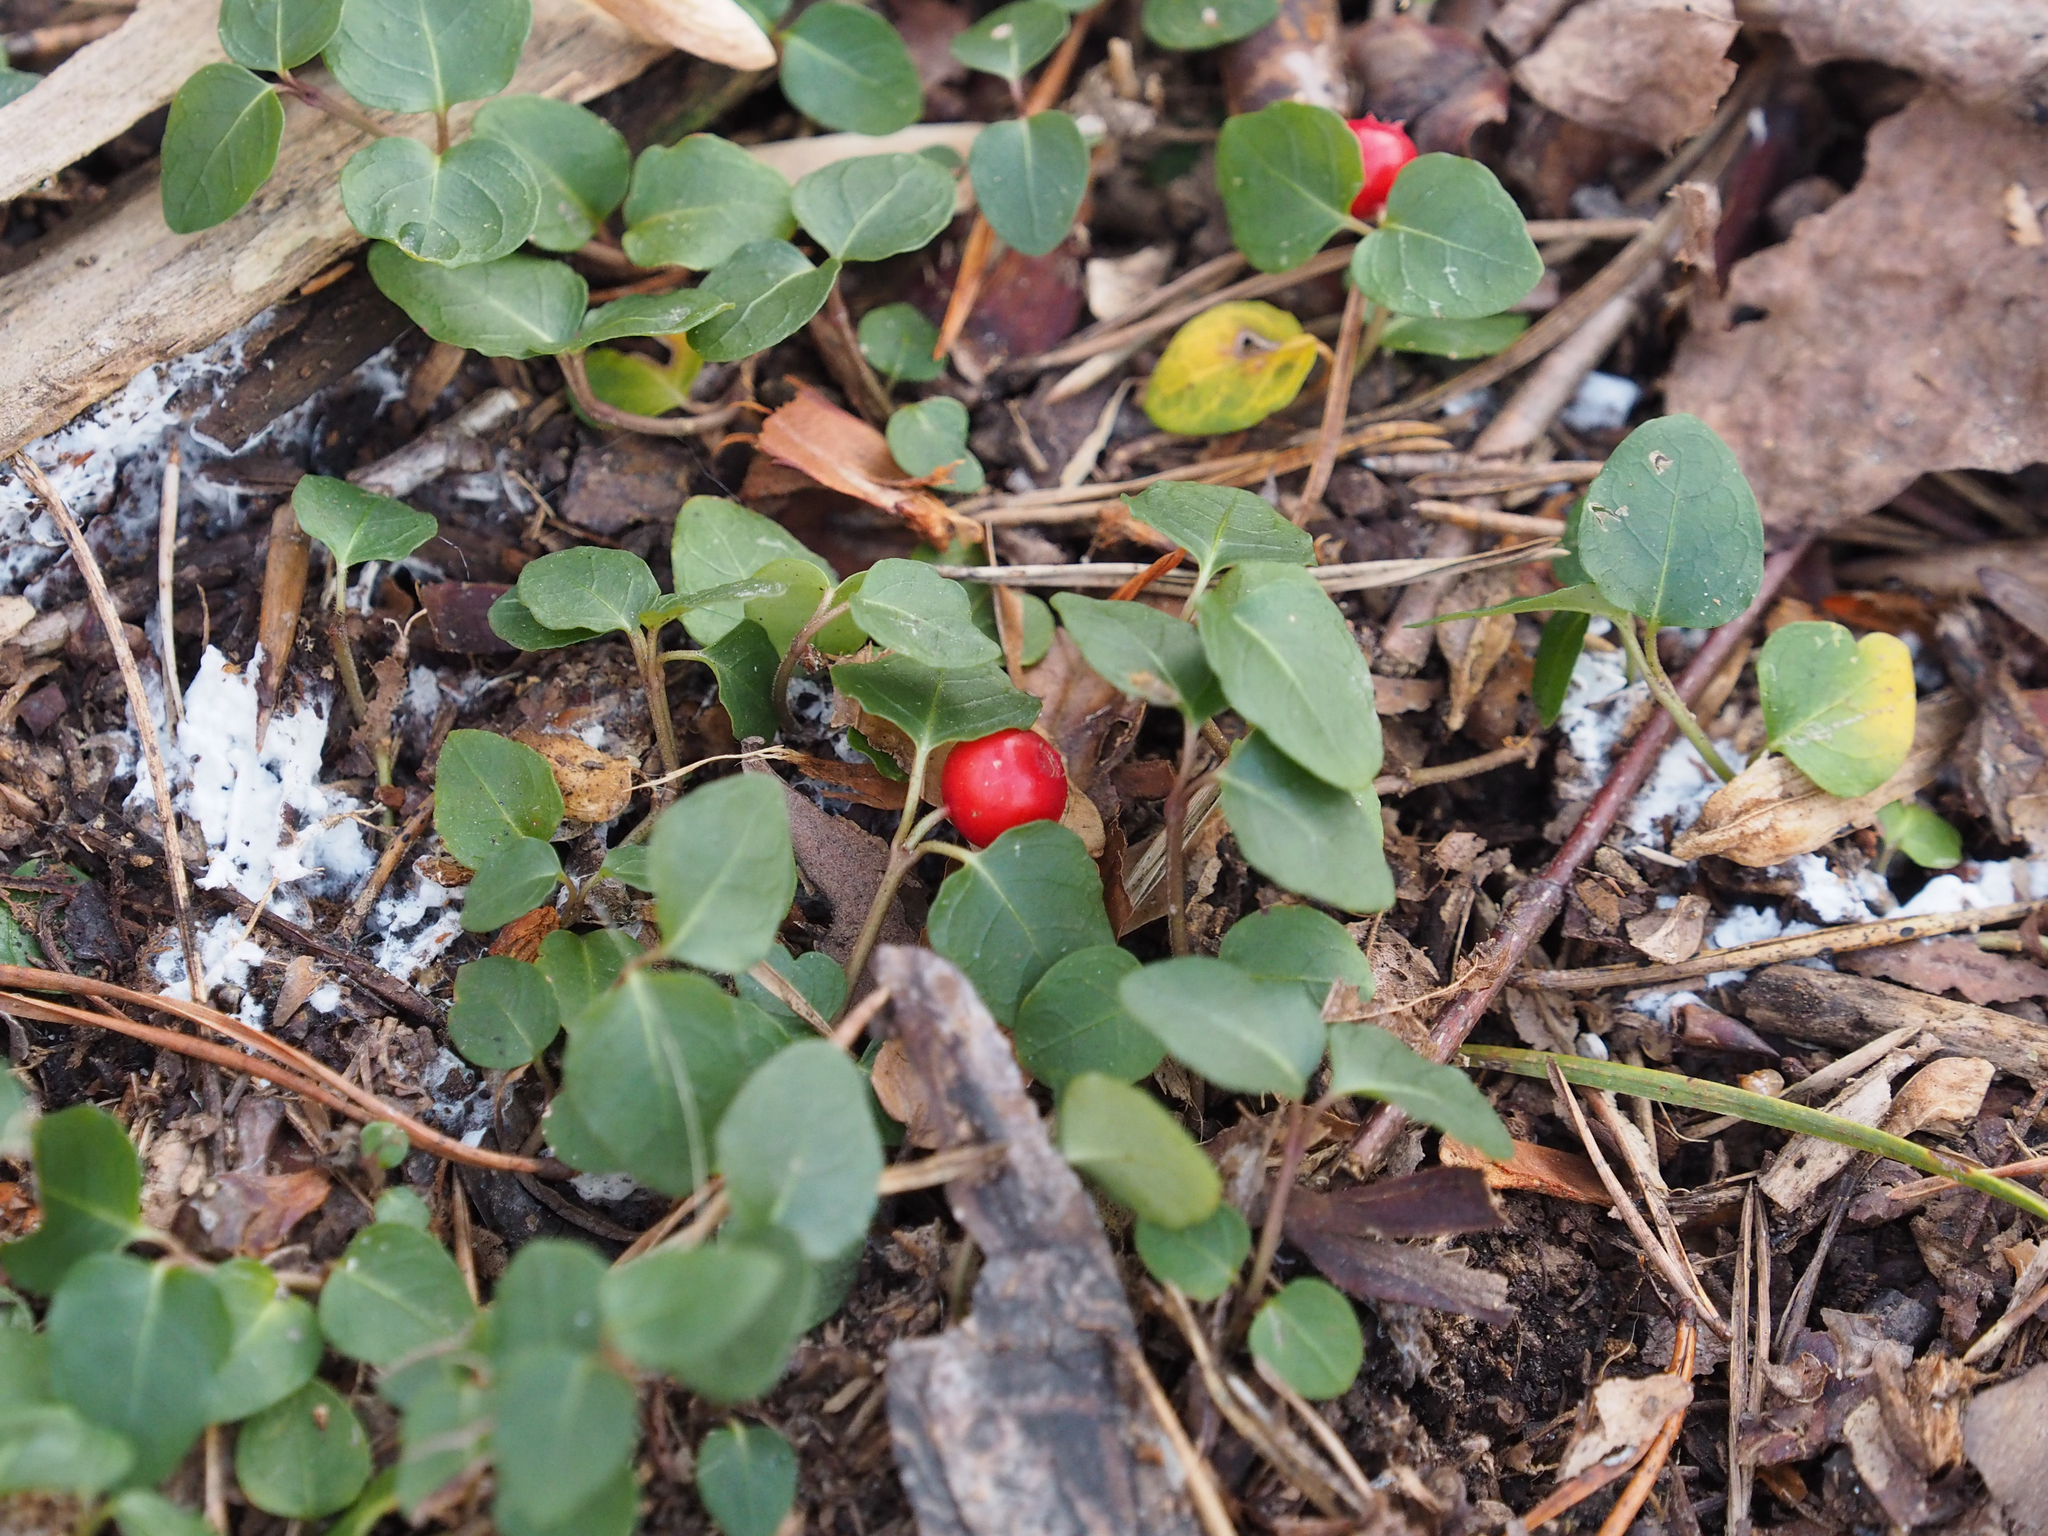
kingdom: Plantae
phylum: Tracheophyta
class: Magnoliopsida
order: Gentianales
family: Rubiaceae
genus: Mitchella
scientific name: Mitchella repens
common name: Partridge-berry
